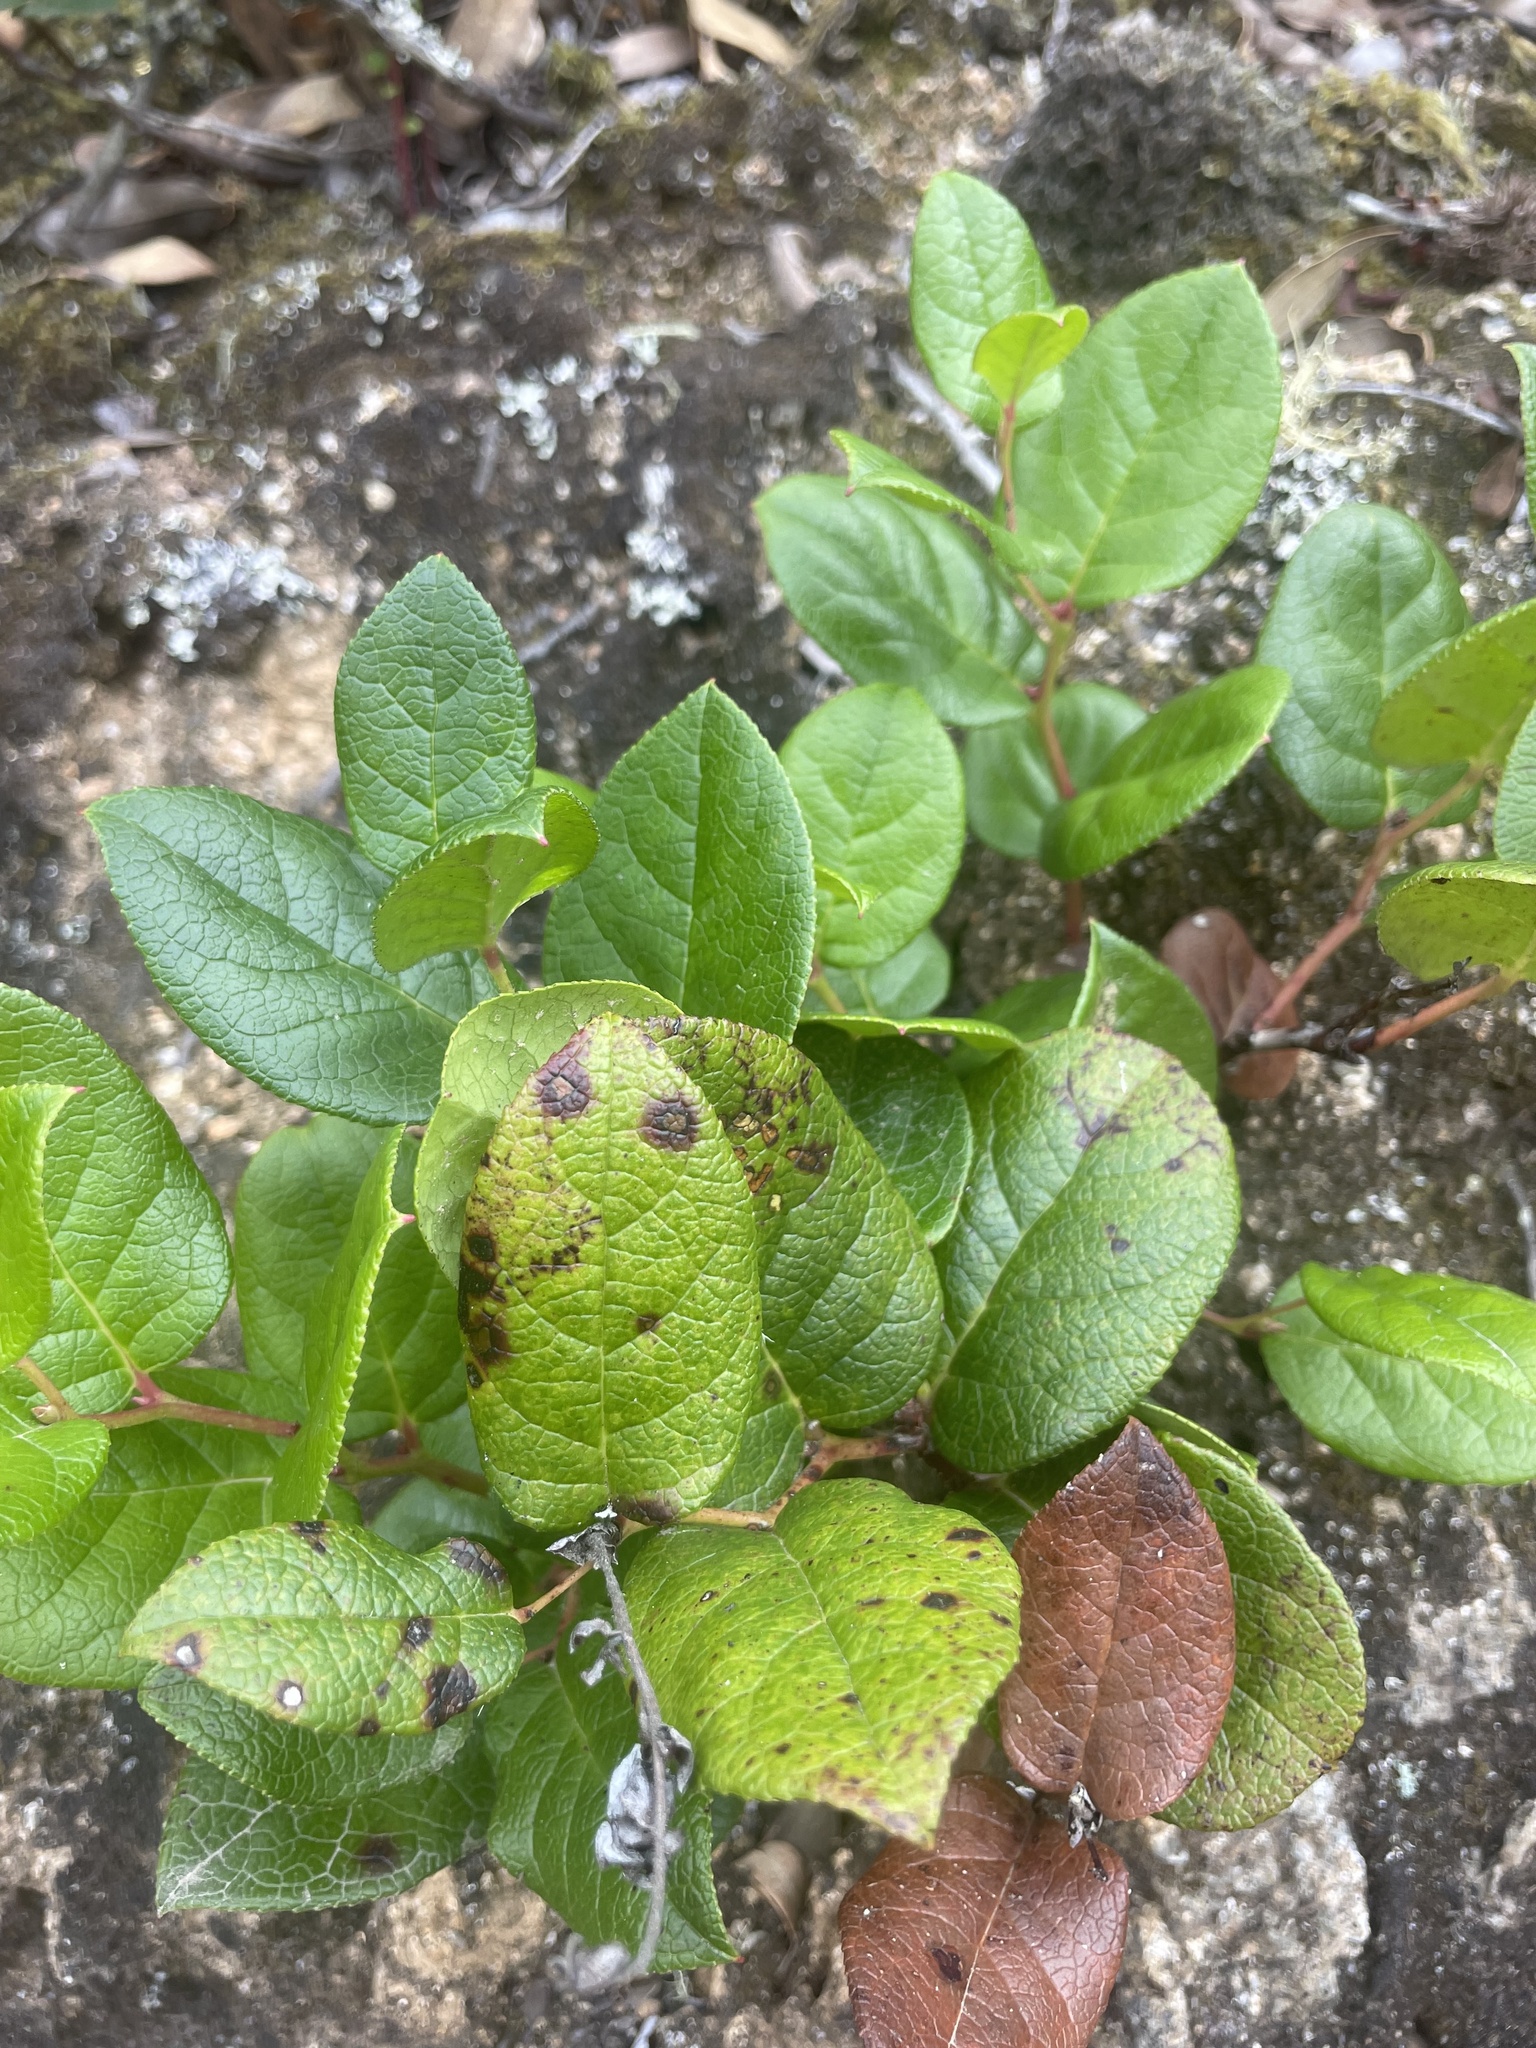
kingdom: Plantae
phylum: Tracheophyta
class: Magnoliopsida
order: Ericales
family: Ericaceae
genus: Gaultheria
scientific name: Gaultheria shallon
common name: Shallon
